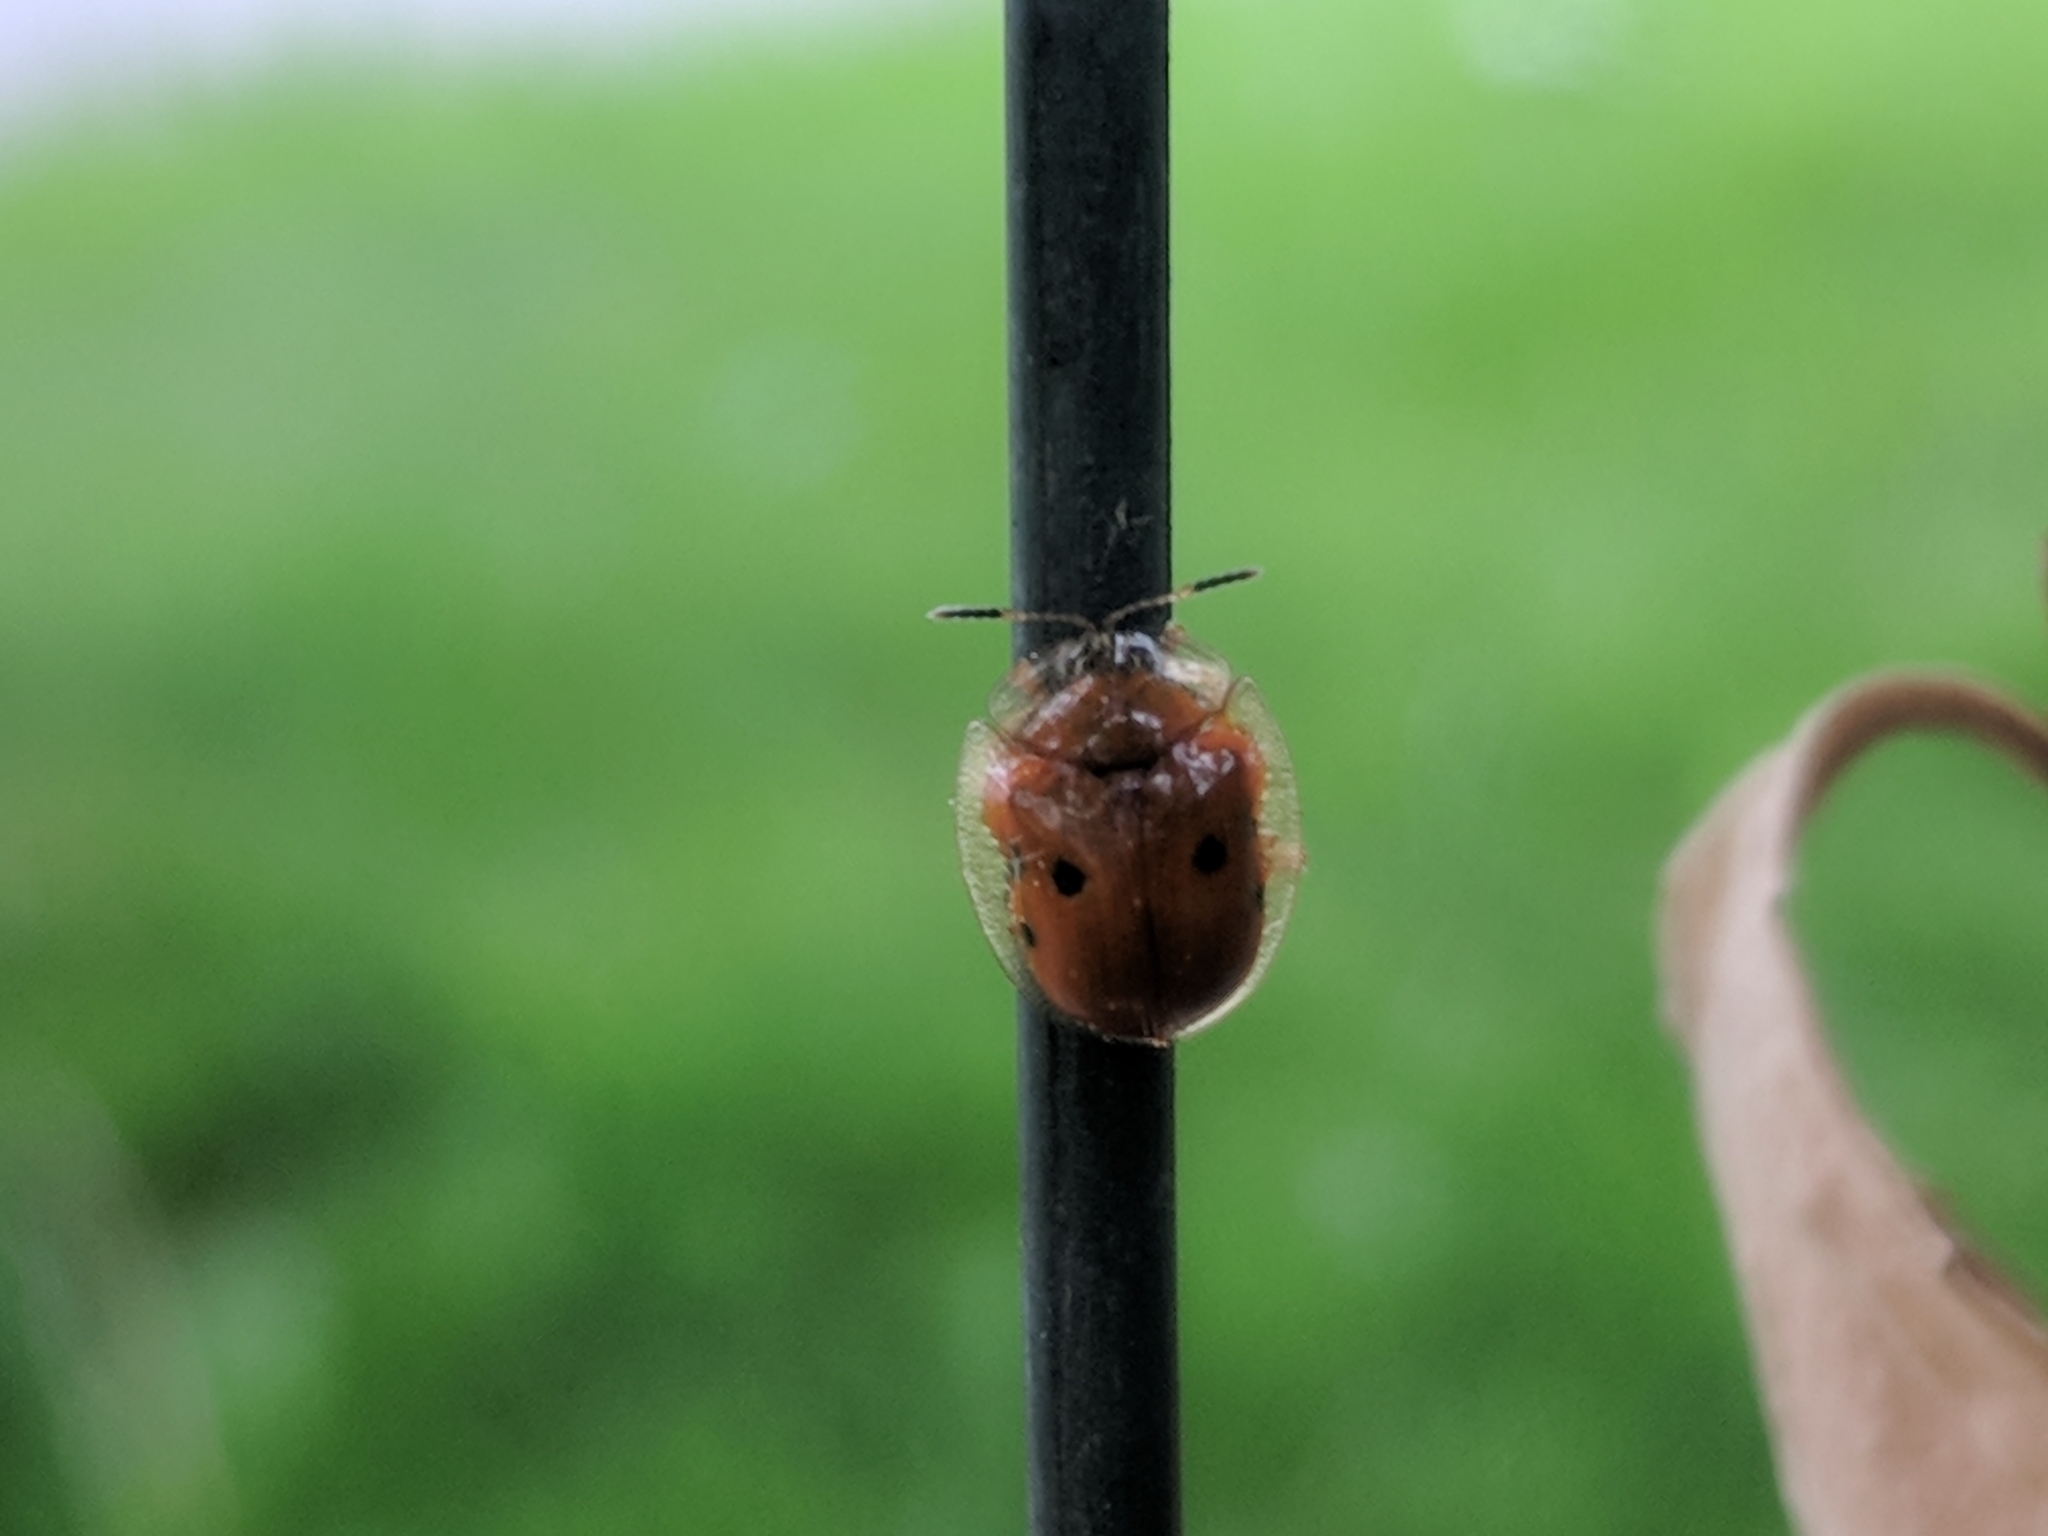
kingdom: Animalia
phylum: Arthropoda
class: Insecta
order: Coleoptera
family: Chrysomelidae
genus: Charidotella
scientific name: Charidotella sexpunctata
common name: Golden tortoise beetle
